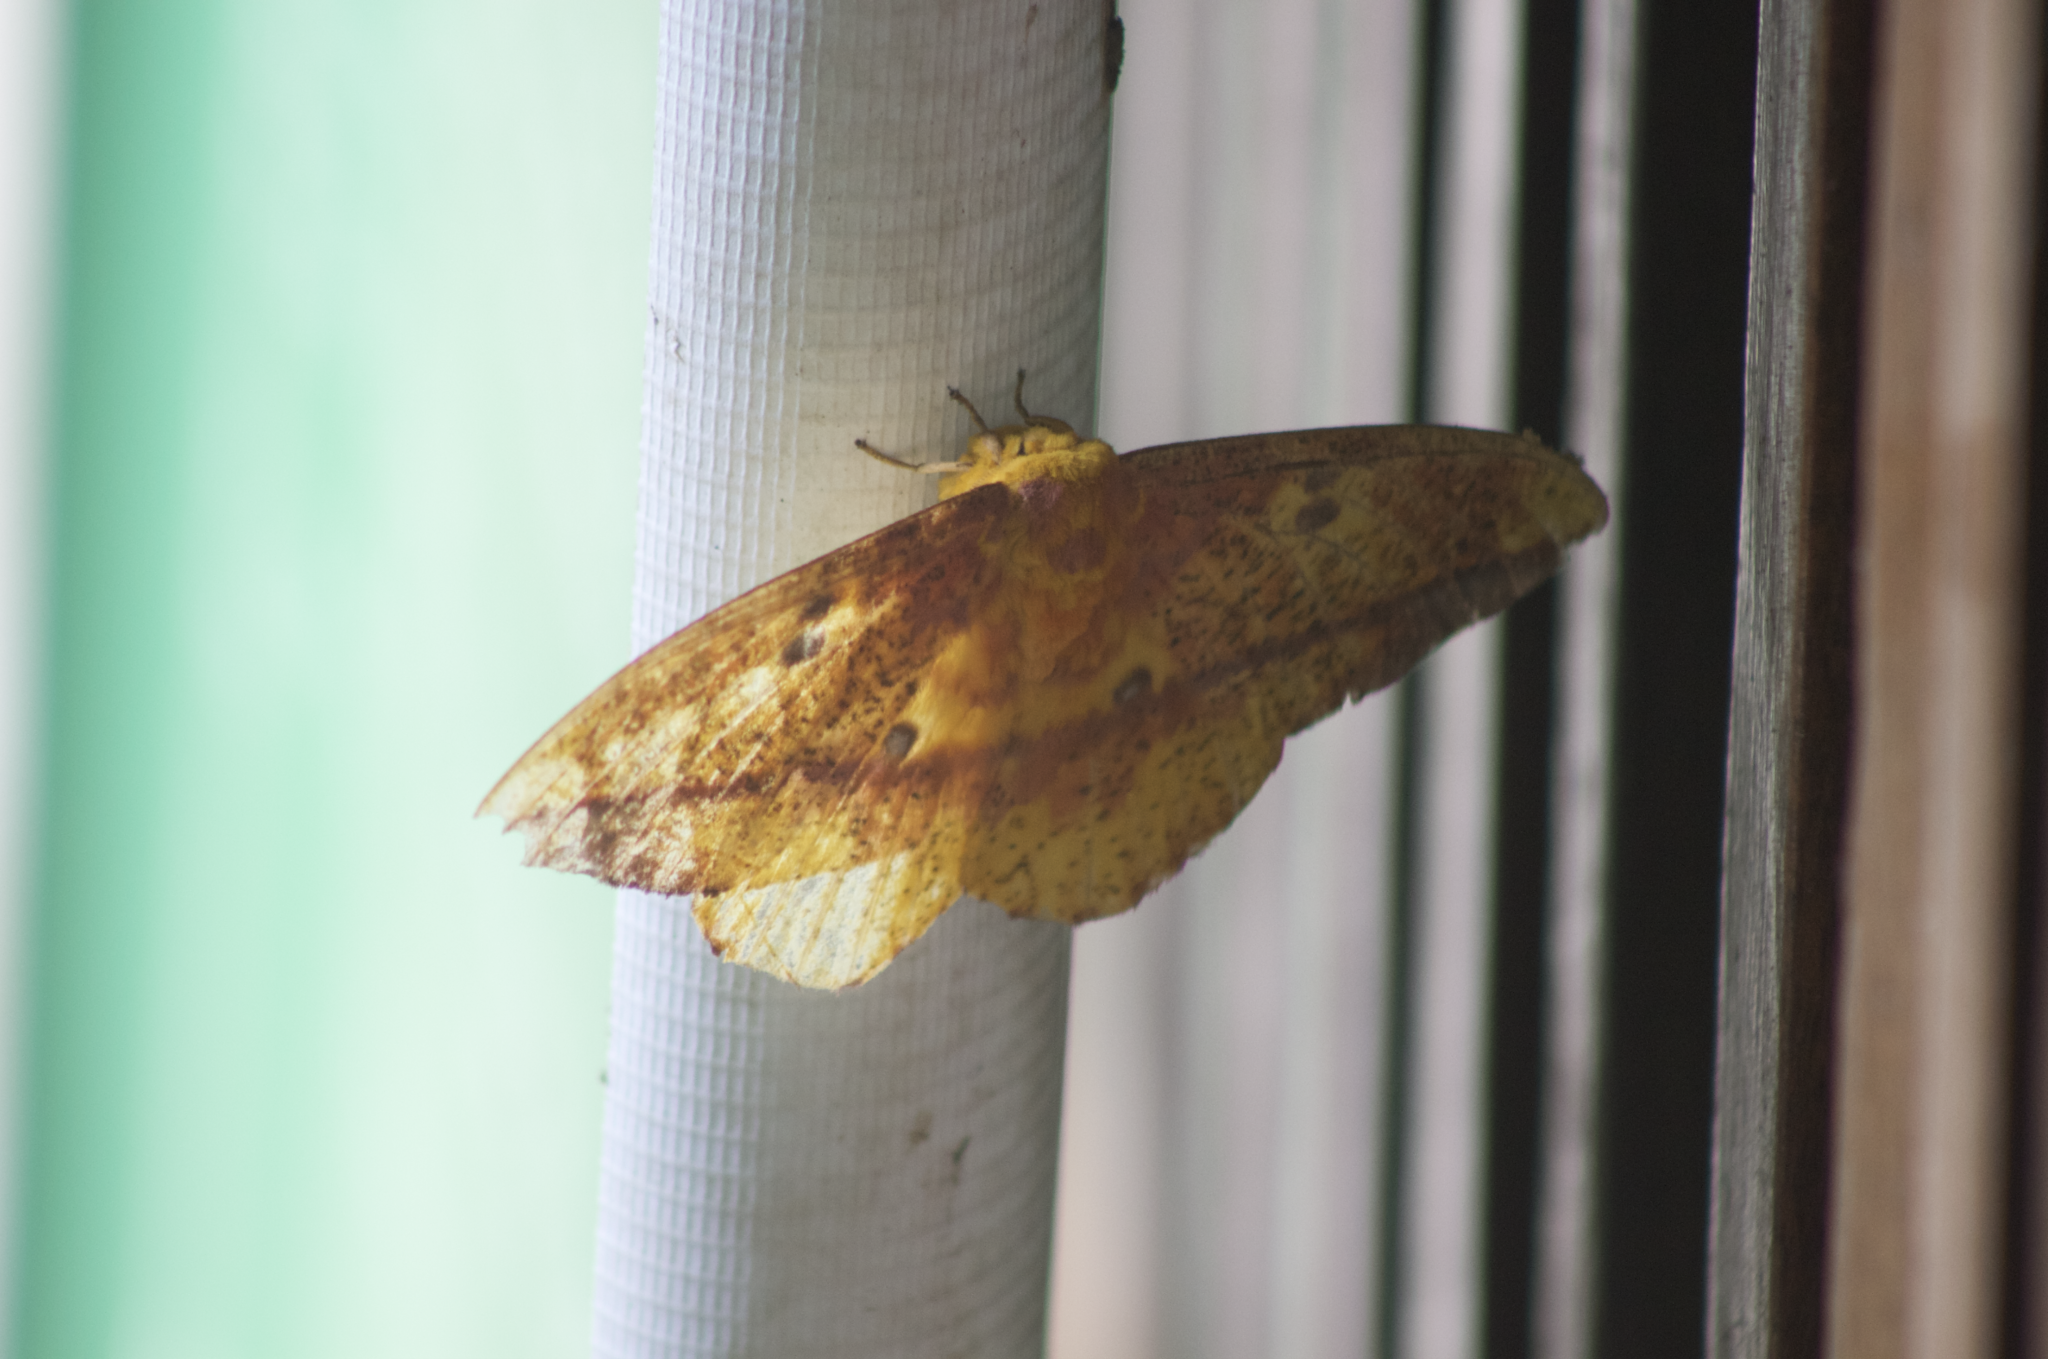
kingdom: Animalia
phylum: Arthropoda
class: Insecta
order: Lepidoptera
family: Saturniidae
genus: Eacles
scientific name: Eacles ormondei
